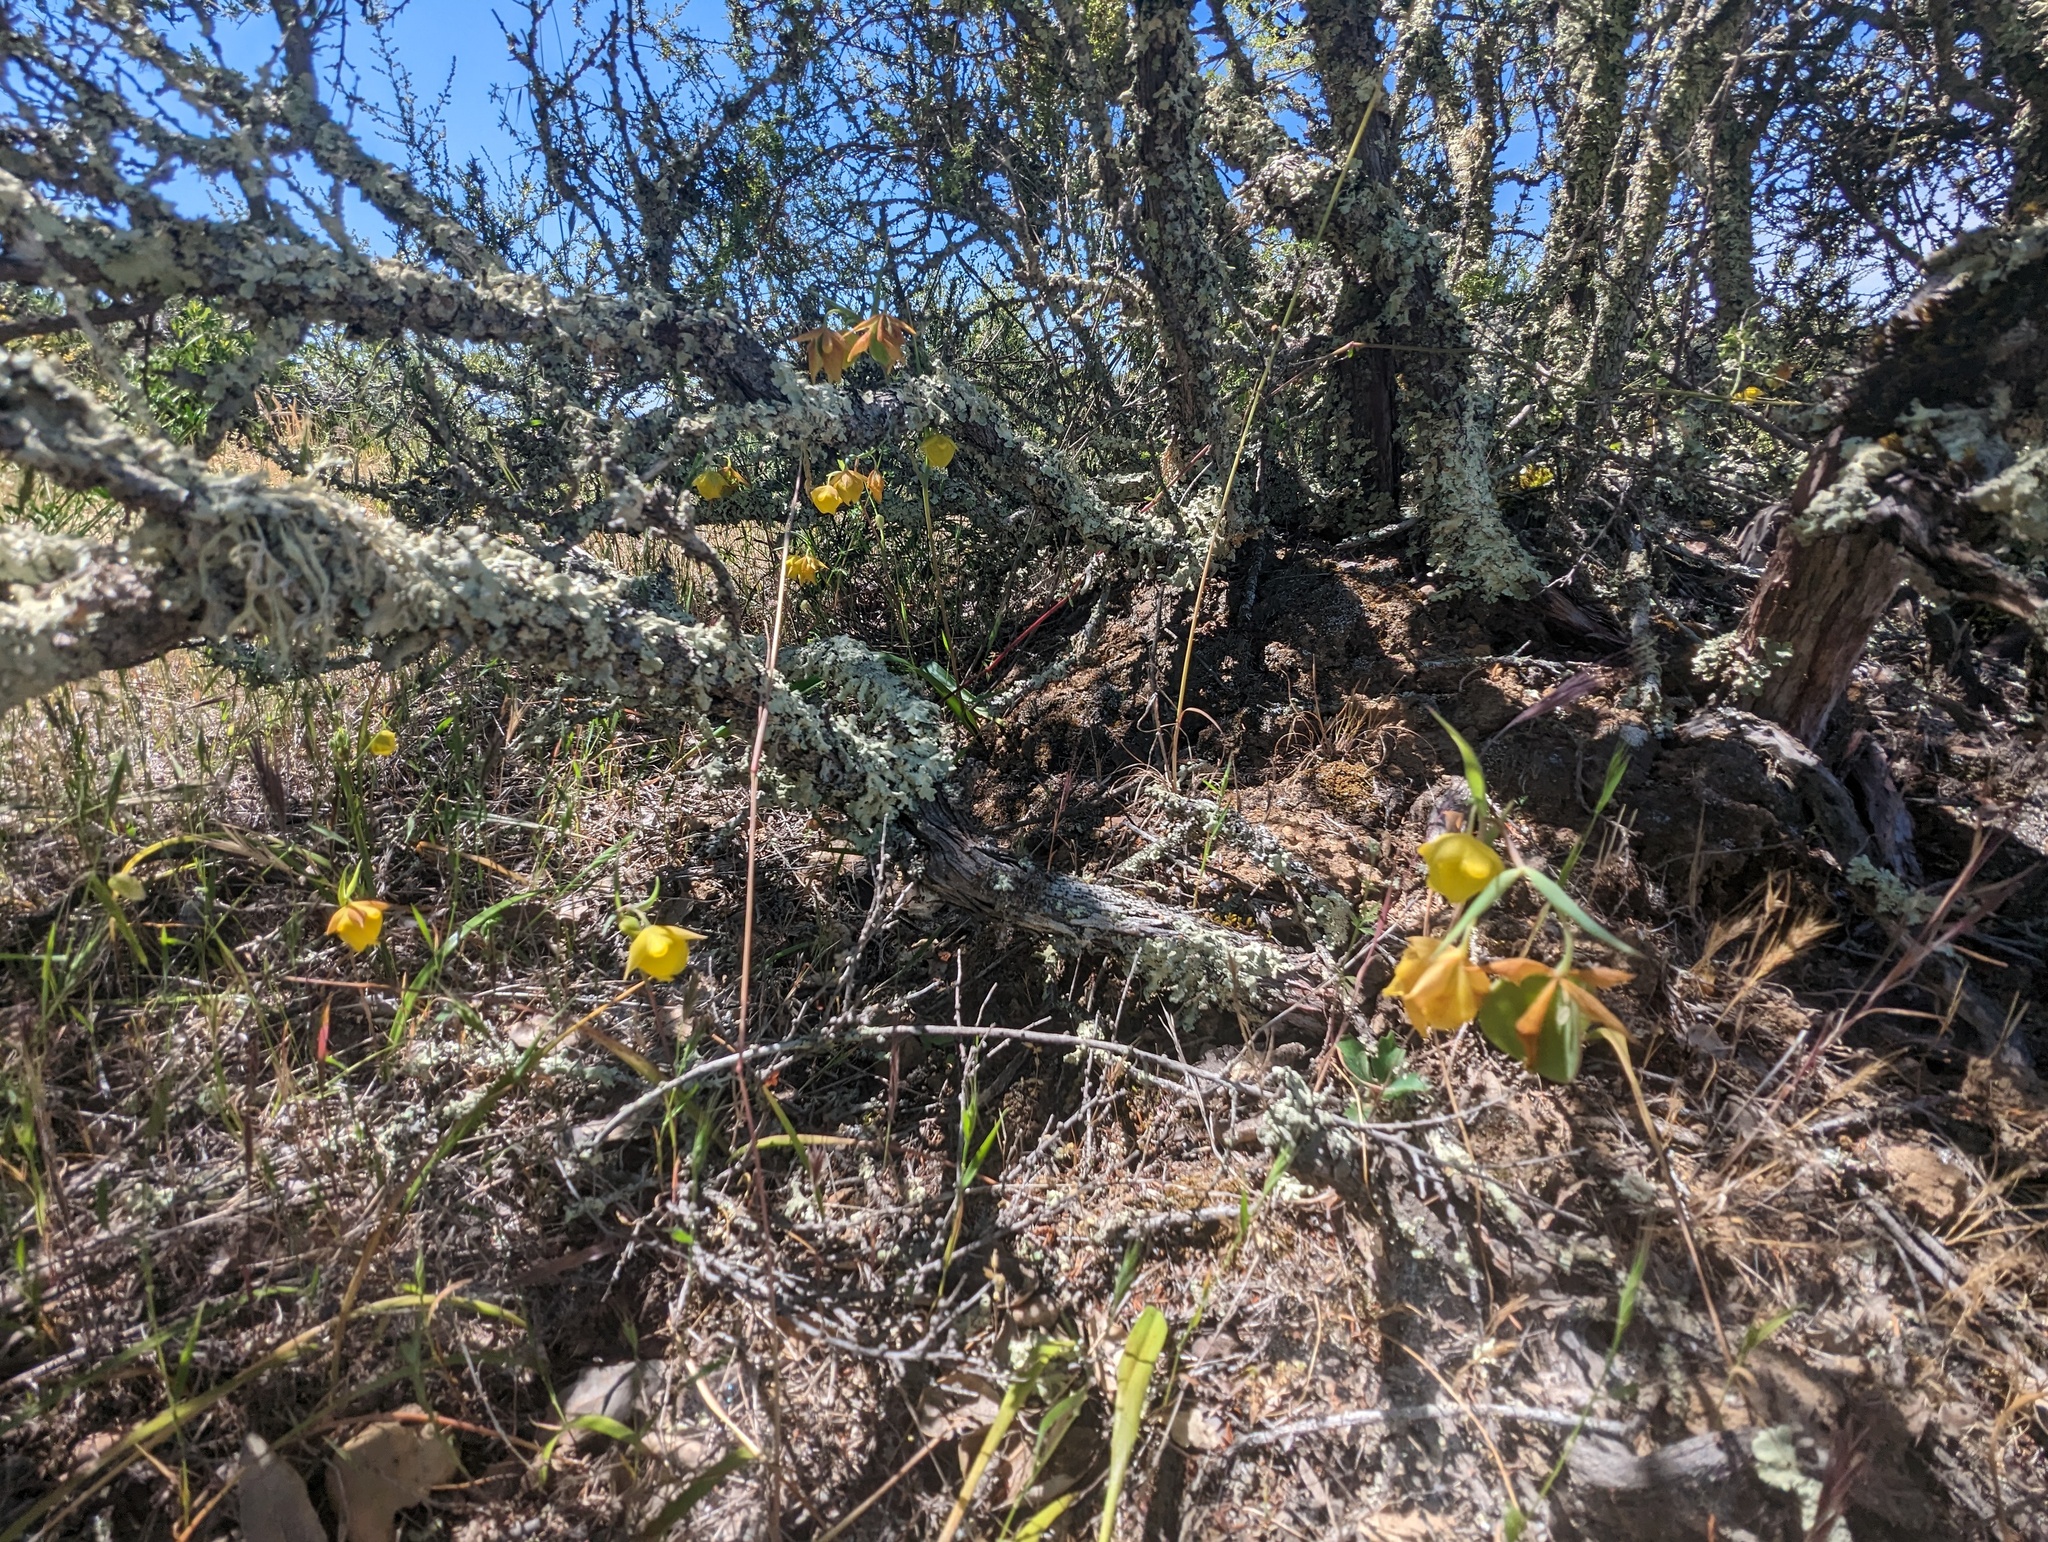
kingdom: Plantae
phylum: Tracheophyta
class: Liliopsida
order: Liliales
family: Liliaceae
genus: Calochortus
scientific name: Calochortus pulchellus
